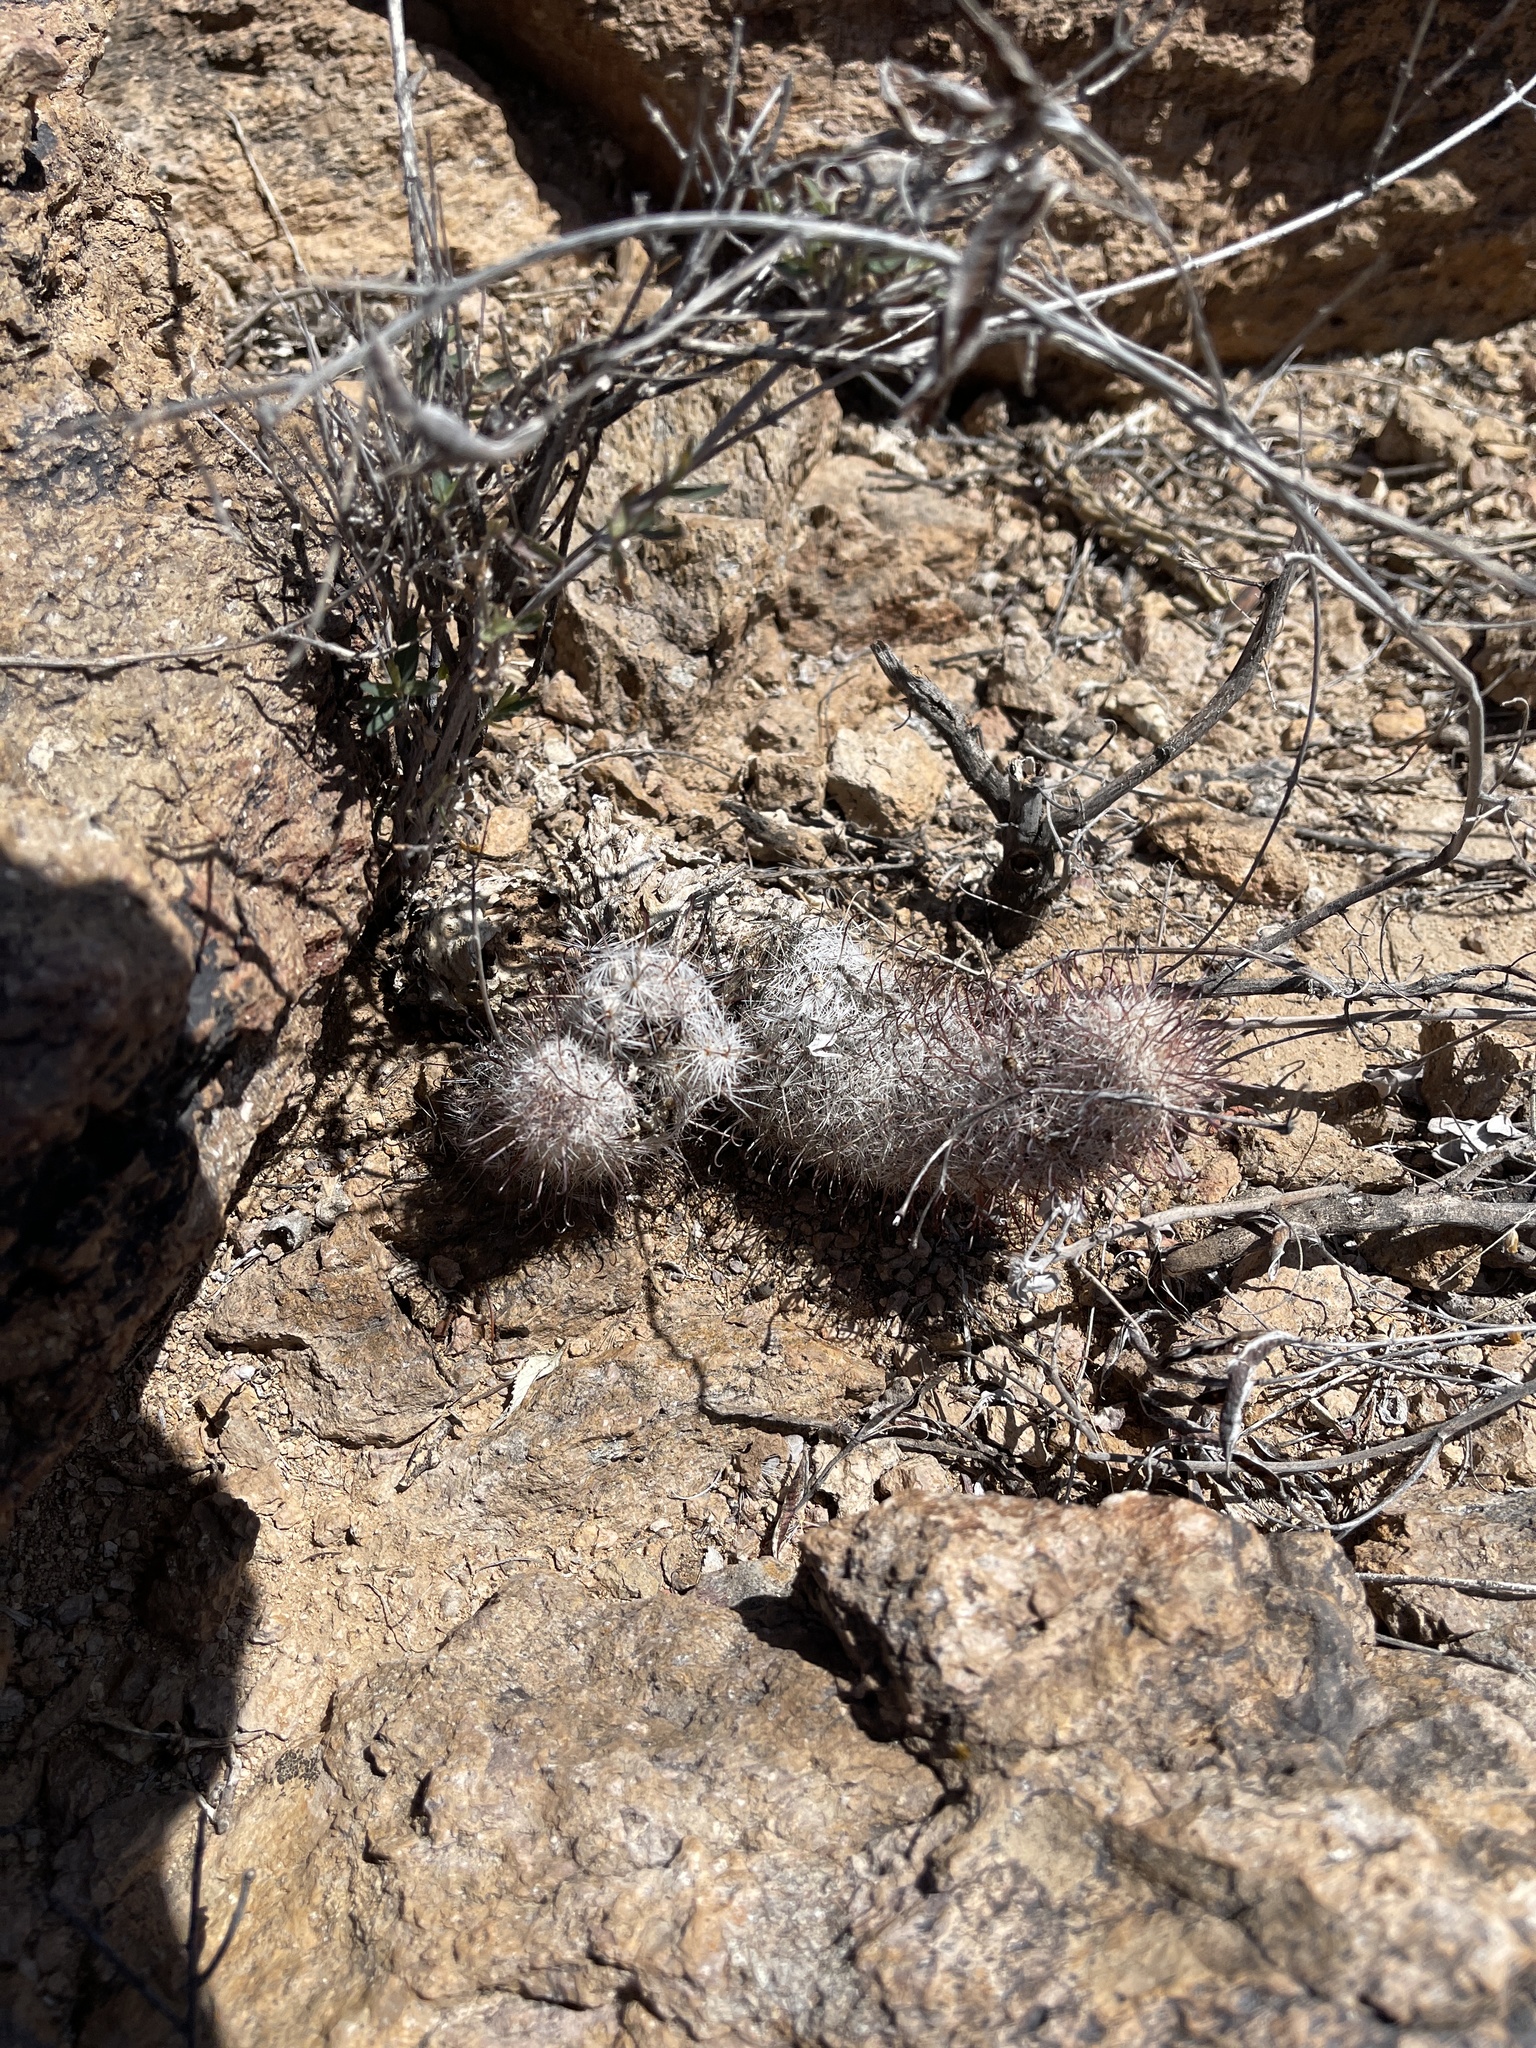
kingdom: Plantae
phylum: Tracheophyta
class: Magnoliopsida
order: Caryophyllales
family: Cactaceae
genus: Cochemiea
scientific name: Cochemiea grahamii
